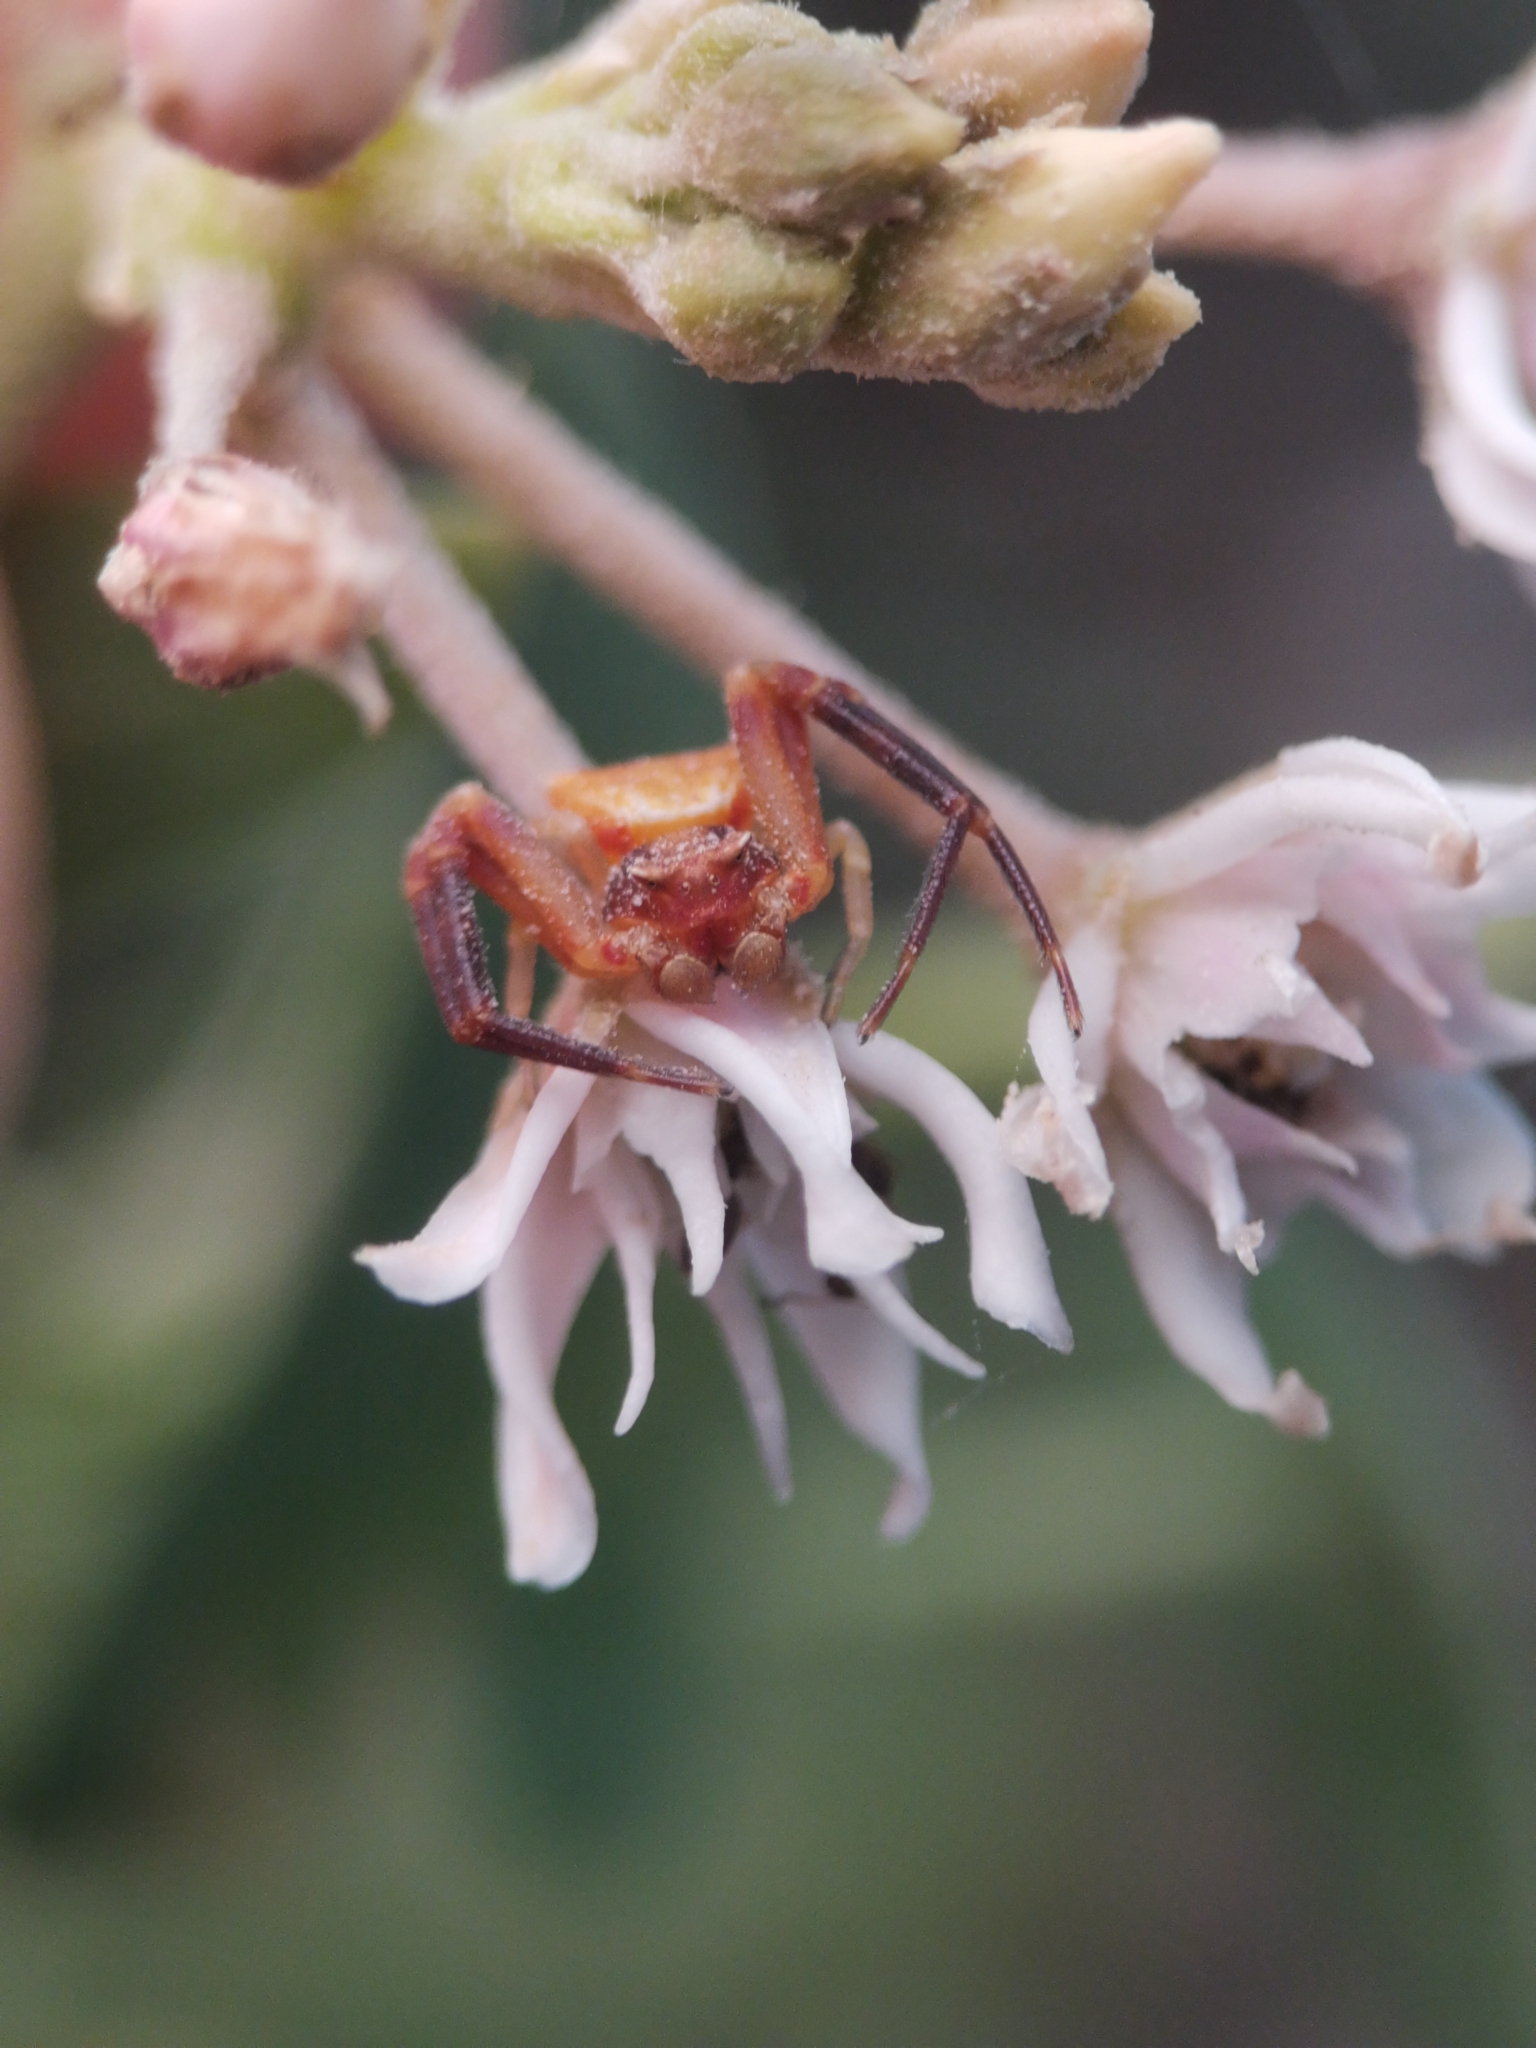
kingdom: Animalia
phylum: Arthropoda
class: Arachnida
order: Araneae
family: Thomisidae
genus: Thomisus
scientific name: Thomisus onustus
